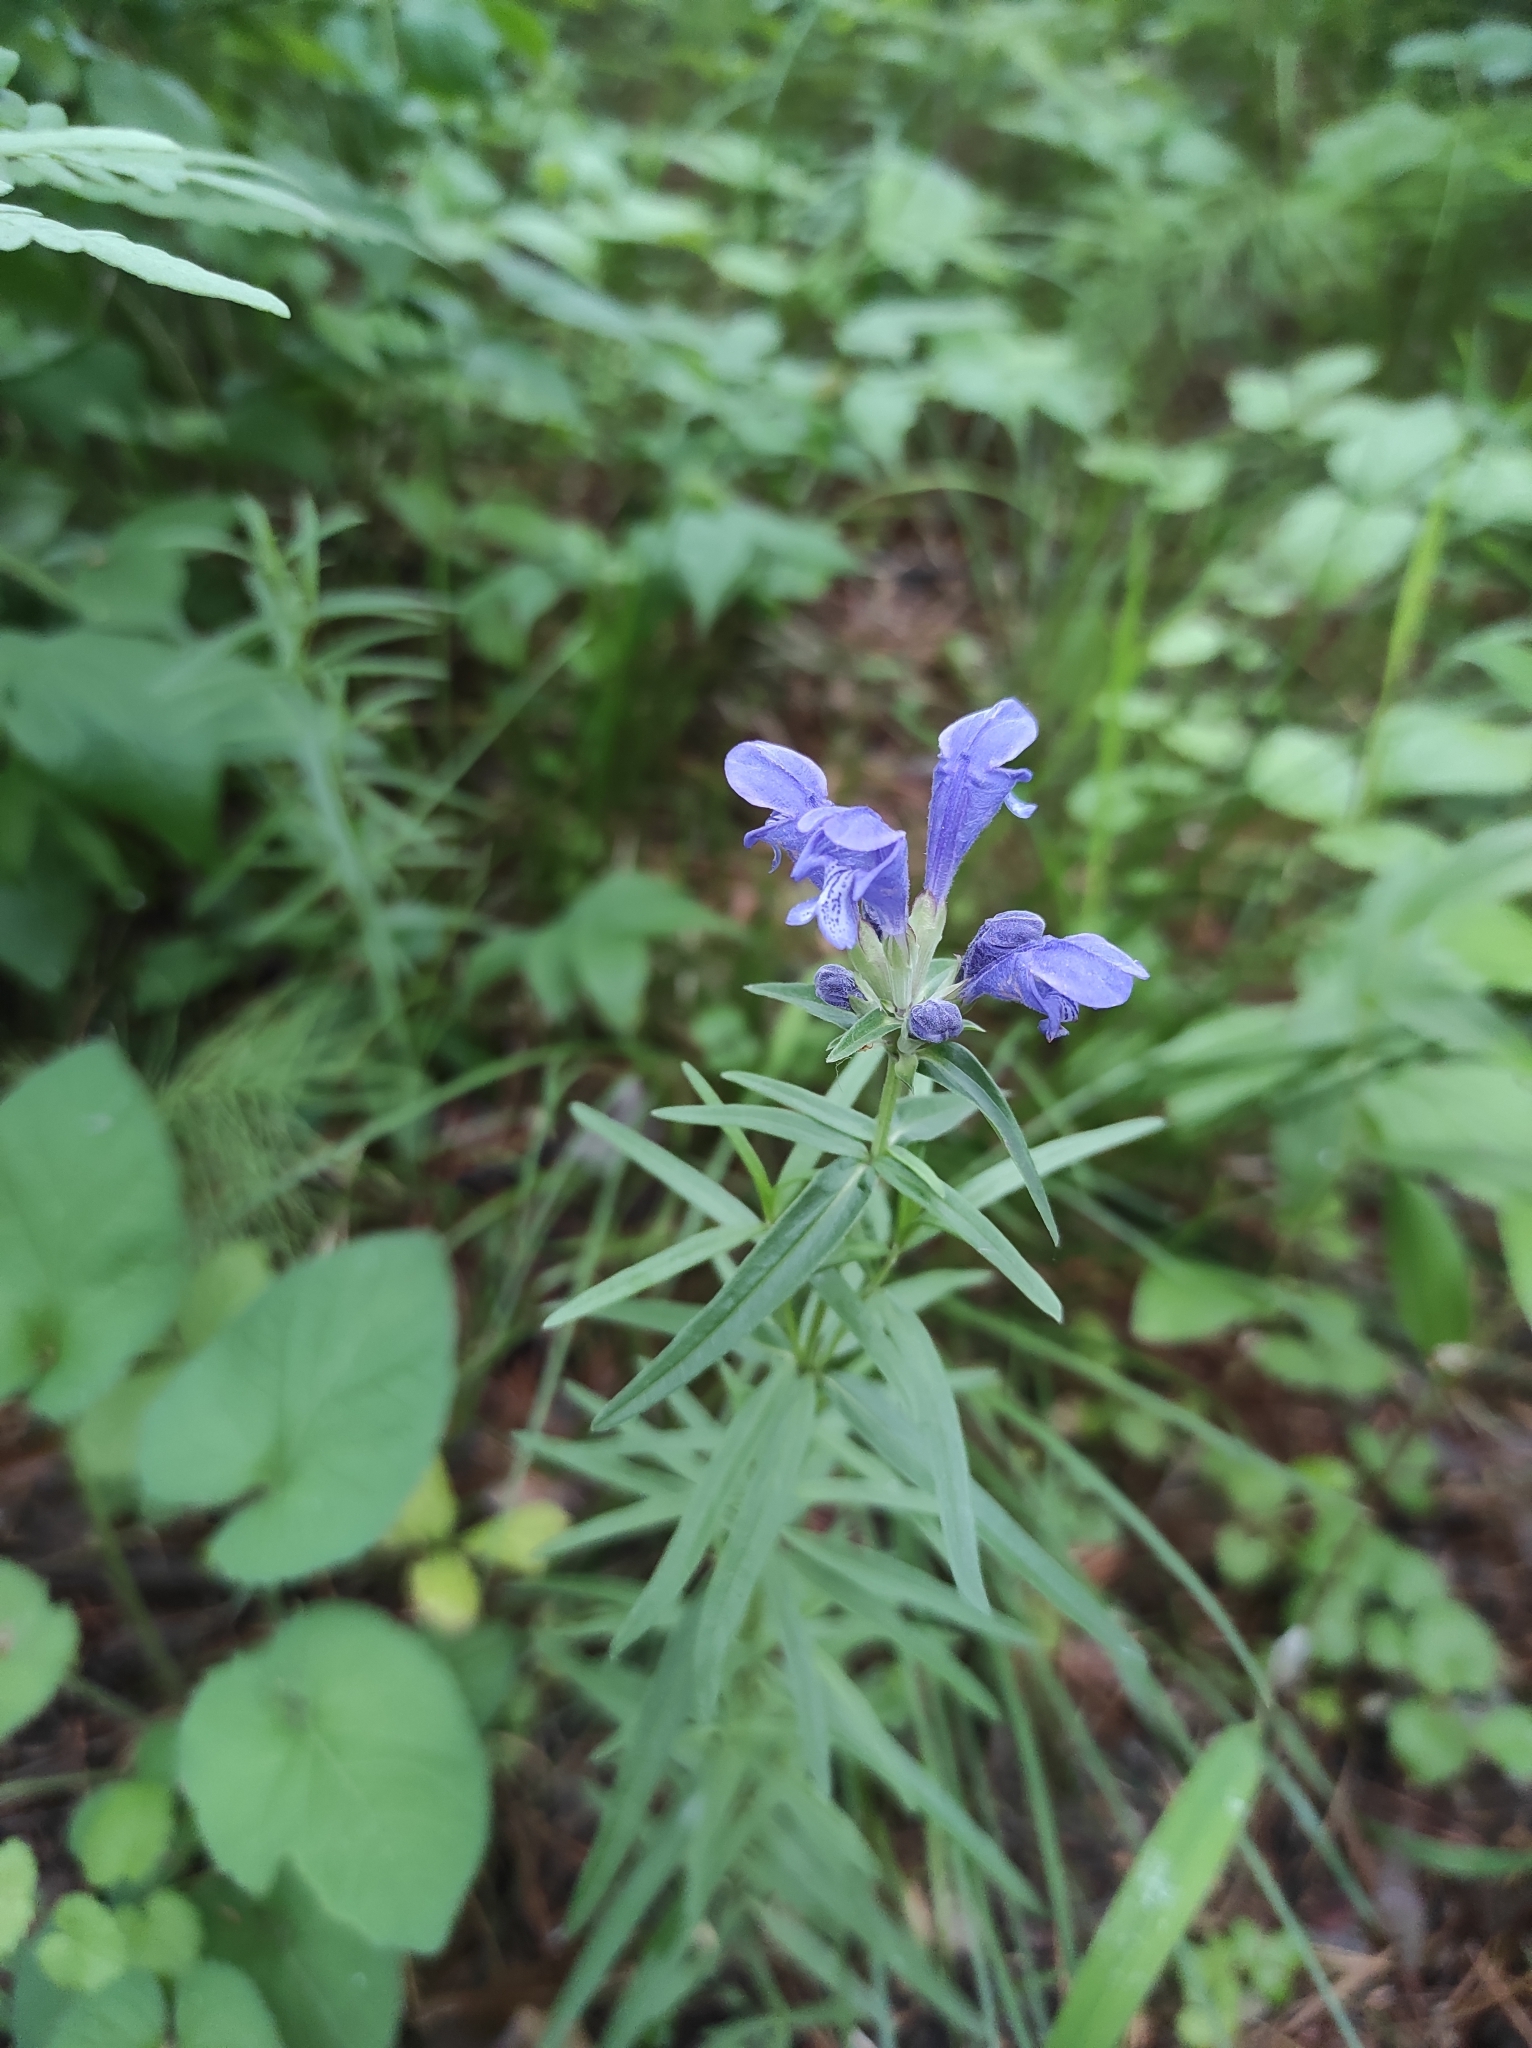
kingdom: Plantae
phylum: Tracheophyta
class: Magnoliopsida
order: Lamiales
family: Lamiaceae
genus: Dracocephalum
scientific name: Dracocephalum ruyschiana
